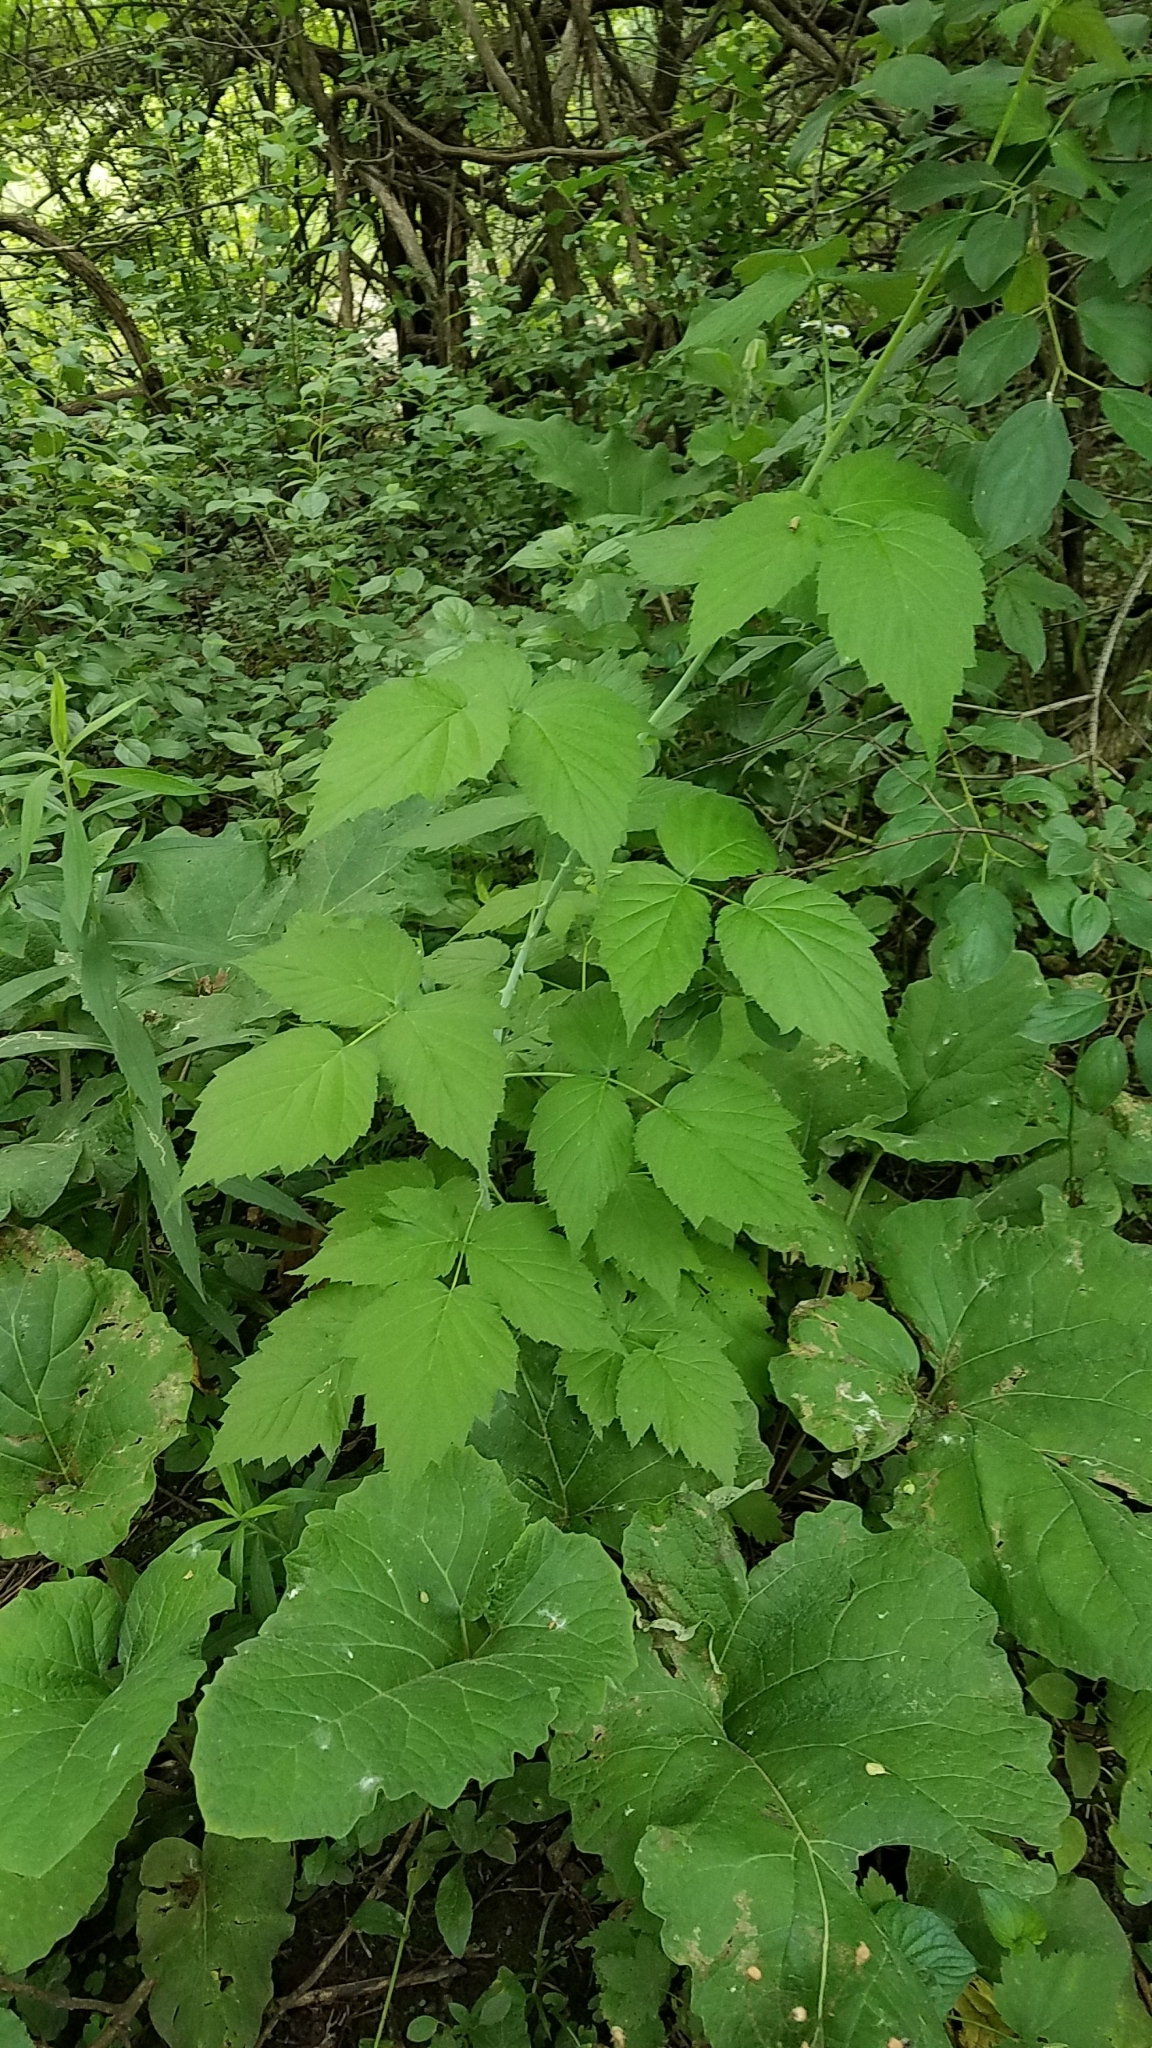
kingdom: Plantae
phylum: Tracheophyta
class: Magnoliopsida
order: Rosales
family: Rosaceae
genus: Rubus
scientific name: Rubus occidentalis
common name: Black raspberry
